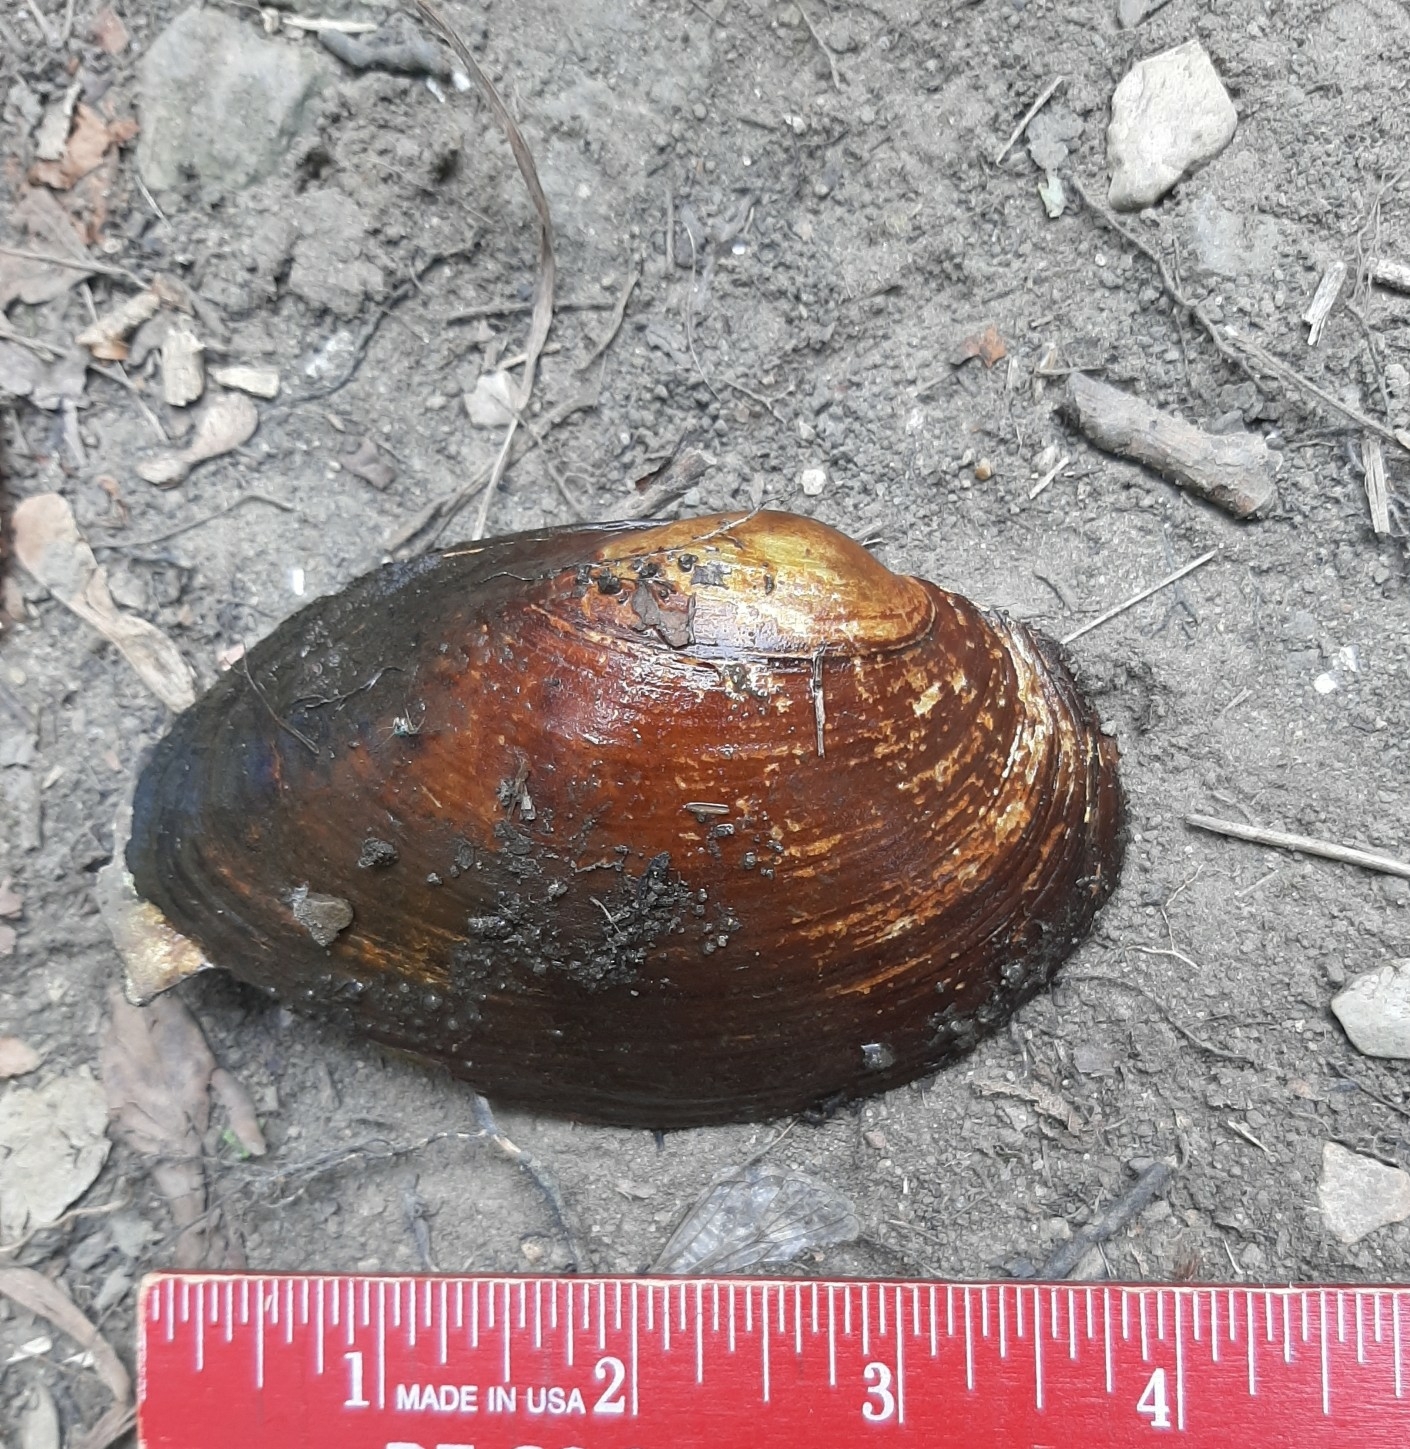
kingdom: Animalia
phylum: Mollusca
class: Bivalvia
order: Unionida
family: Unionidae
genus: Pyganodon
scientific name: Pyganodon grandis
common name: Giant floater
